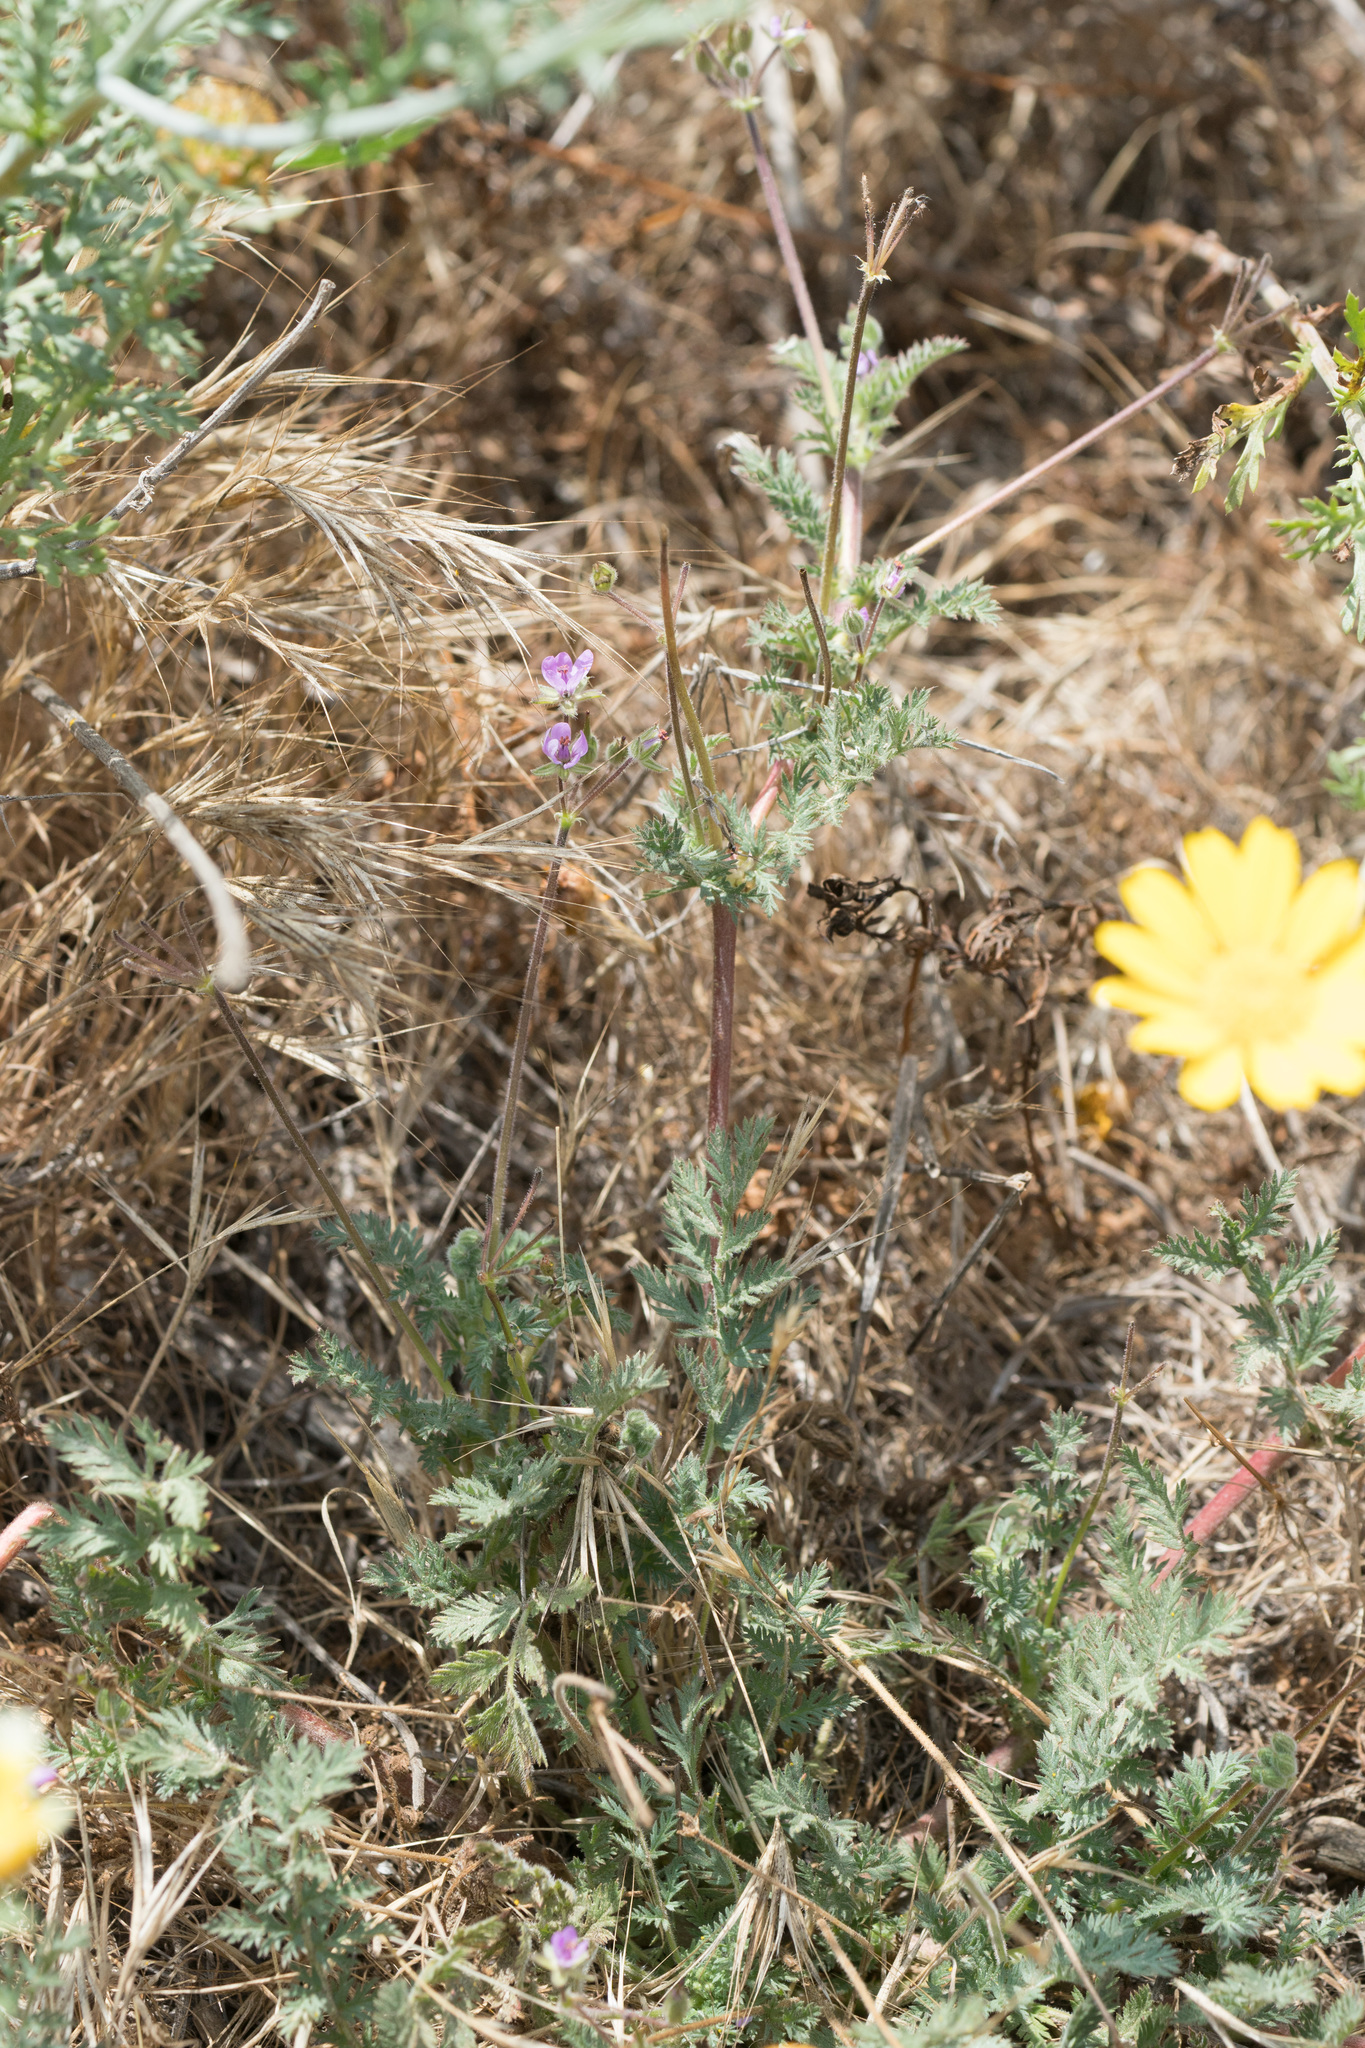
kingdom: Plantae
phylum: Tracheophyta
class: Magnoliopsida
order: Geraniales
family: Geraniaceae
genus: Erodium
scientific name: Erodium cicutarium
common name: Common stork's-bill
